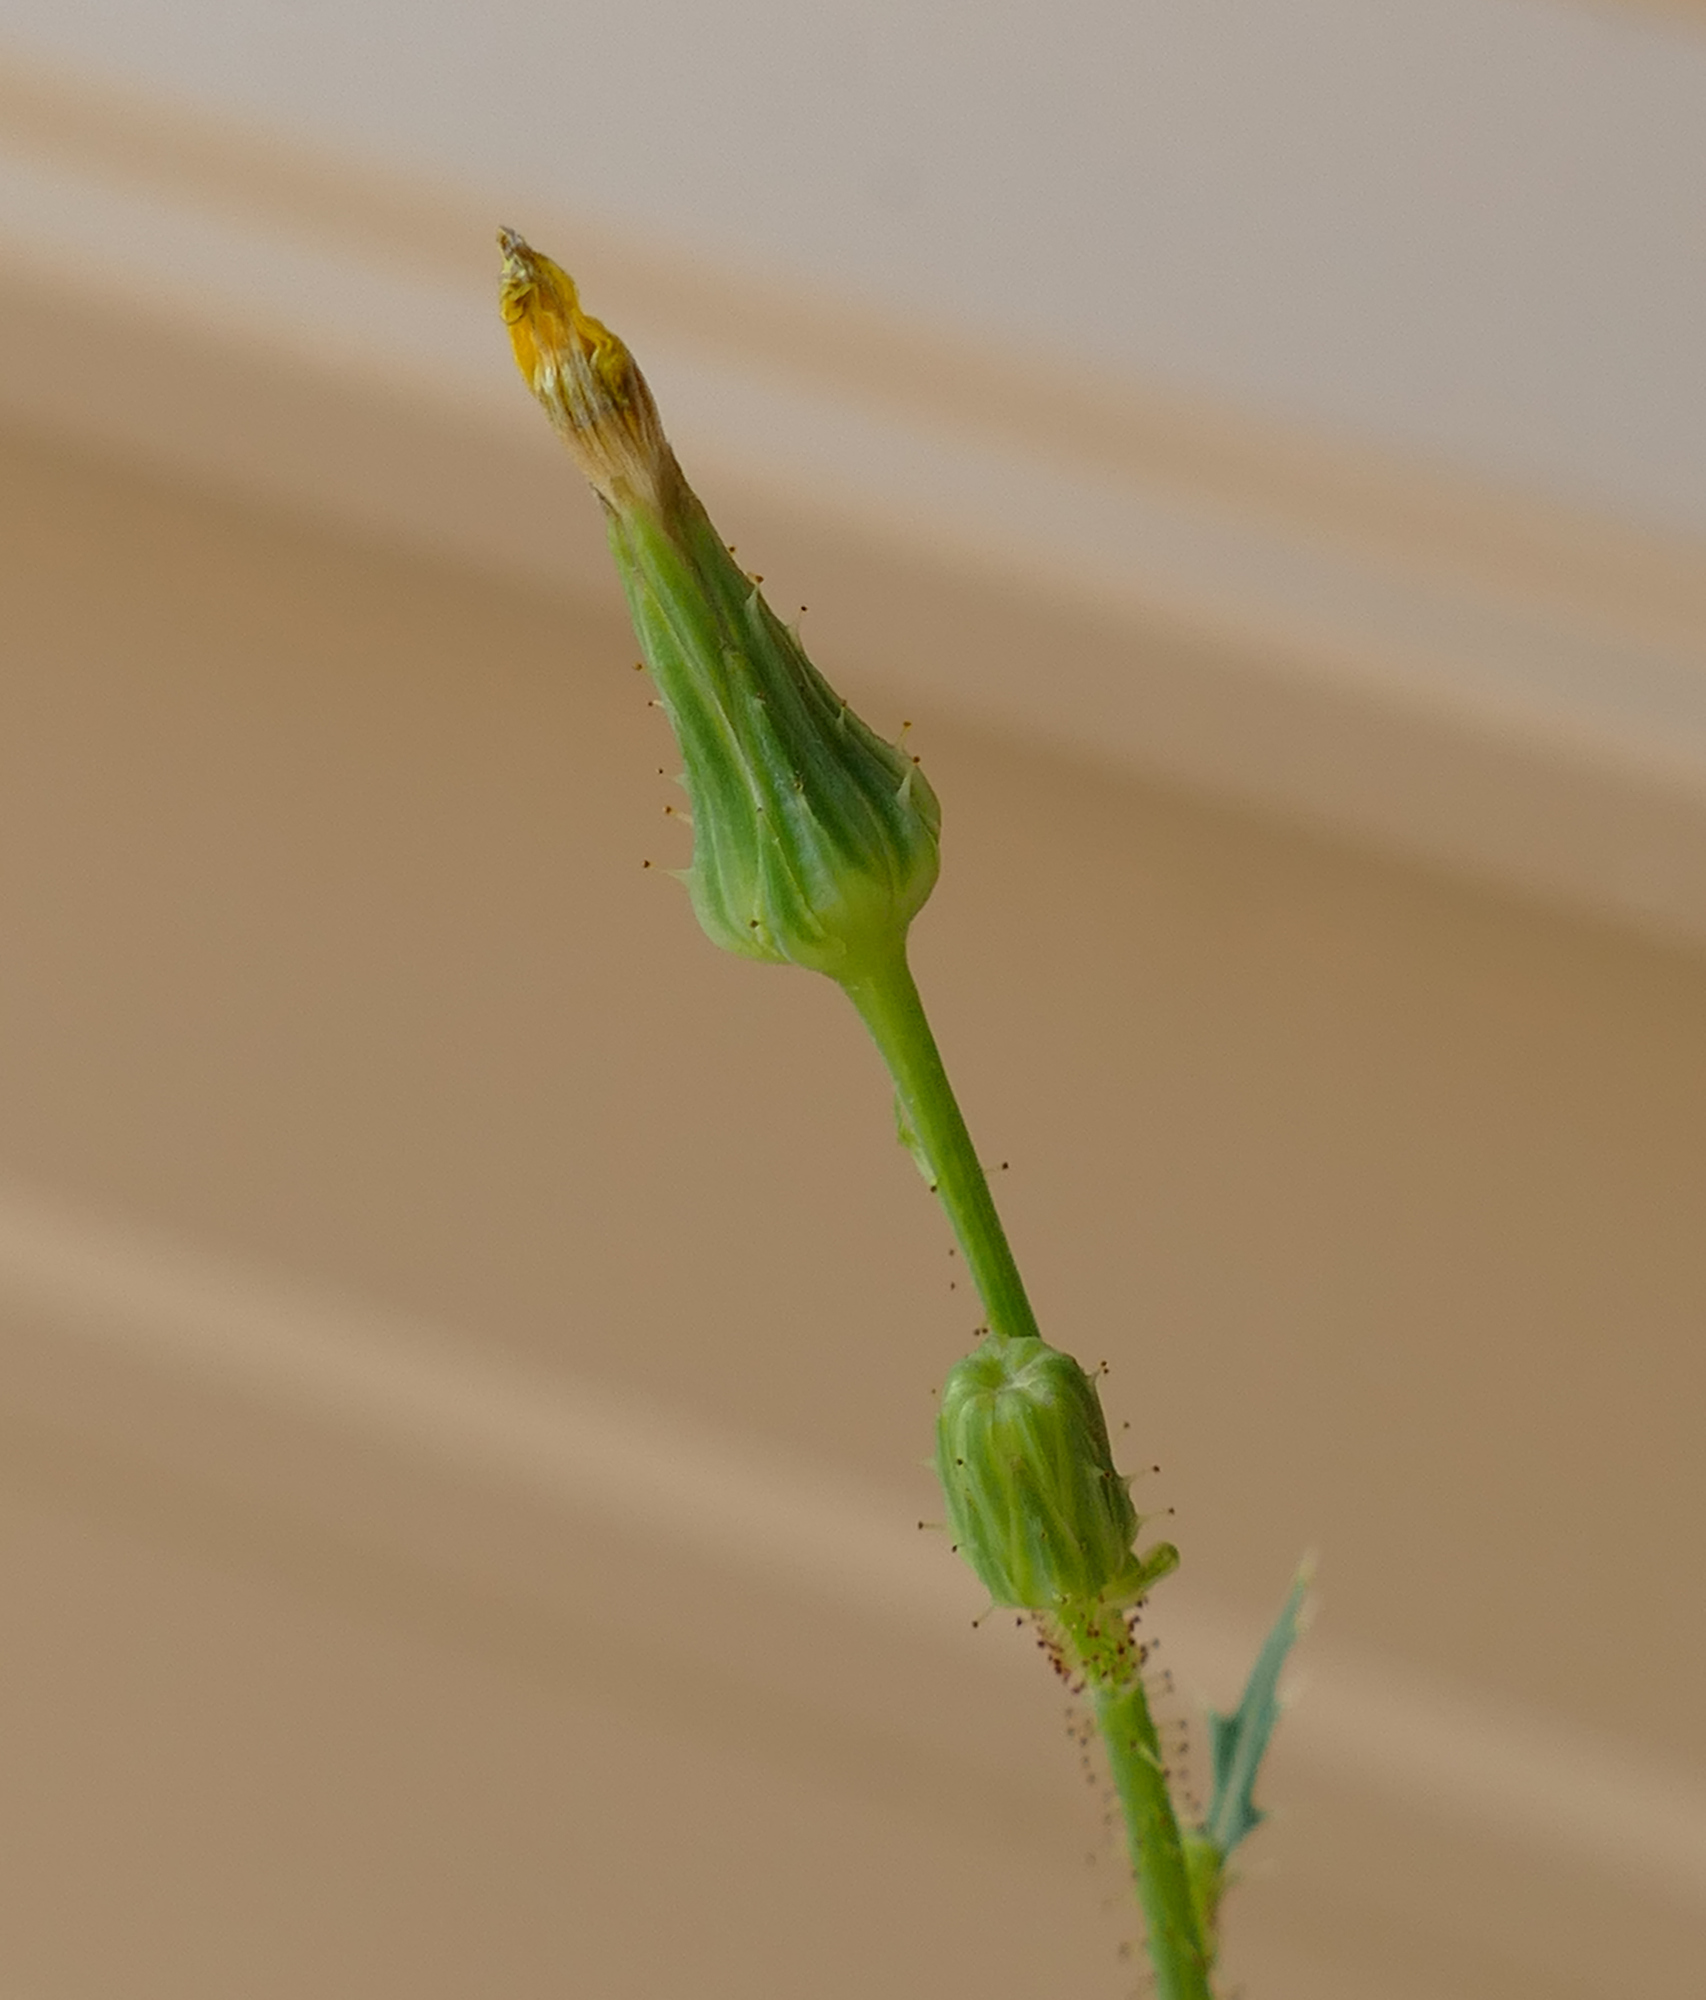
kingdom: Plantae
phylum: Tracheophyta
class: Magnoliopsida
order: Asterales
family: Asteraceae
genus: Sonchus
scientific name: Sonchus asper
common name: Prickly sow-thistle
